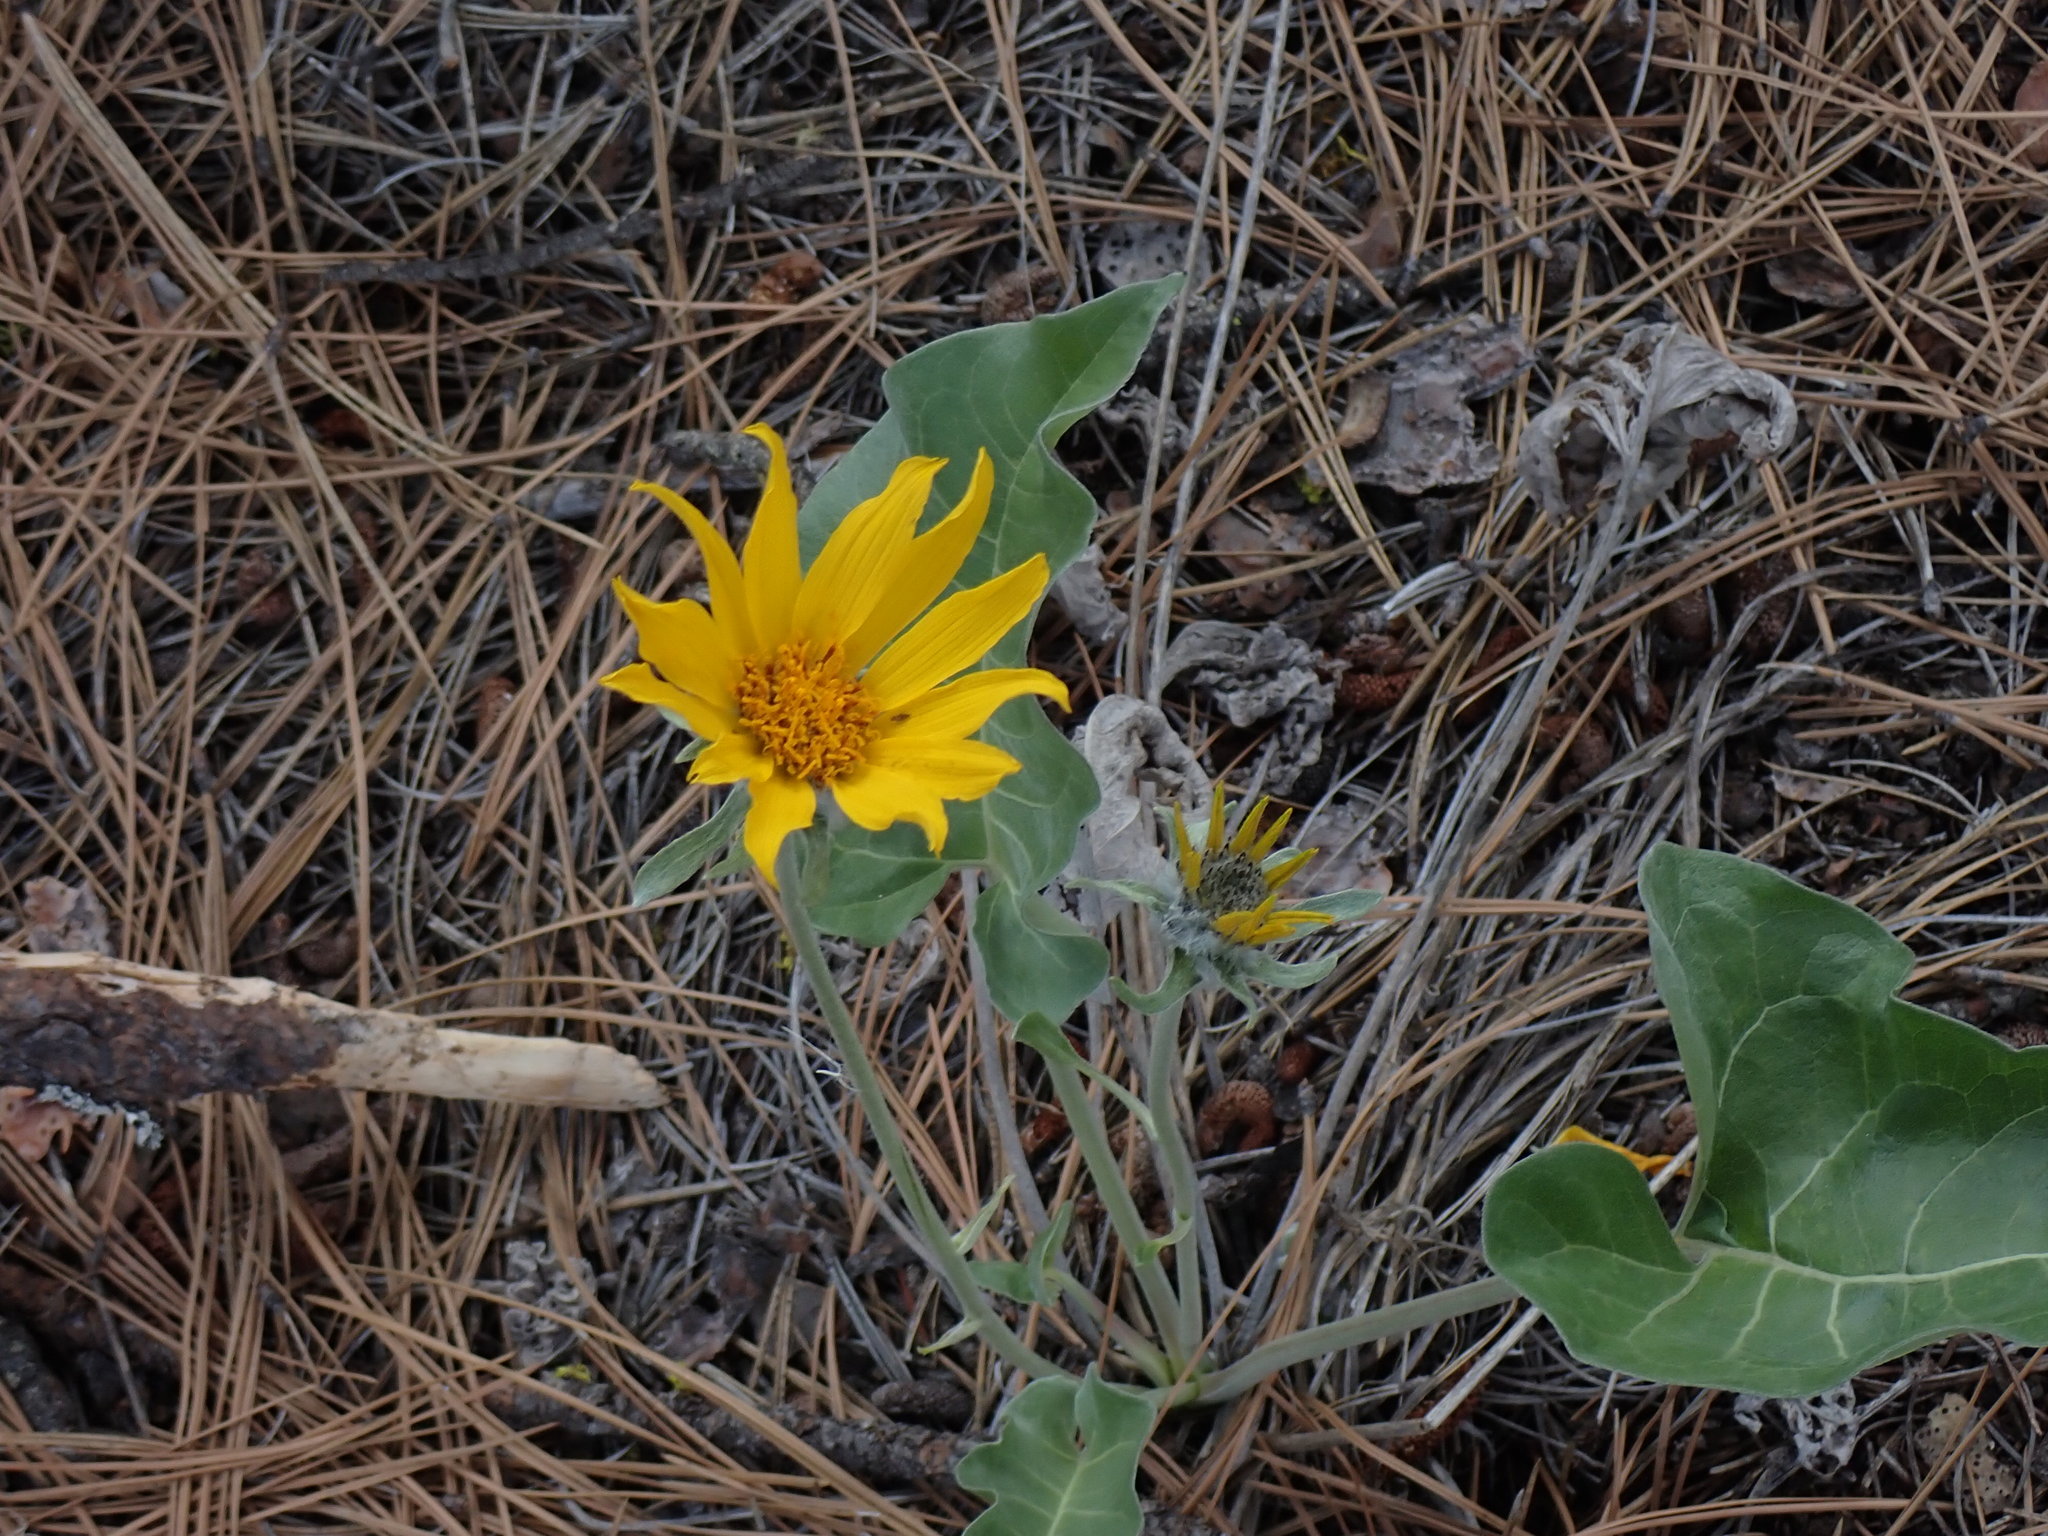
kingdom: Plantae
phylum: Tracheophyta
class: Magnoliopsida
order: Asterales
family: Asteraceae
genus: Wyethia
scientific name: Wyethia sagittata
